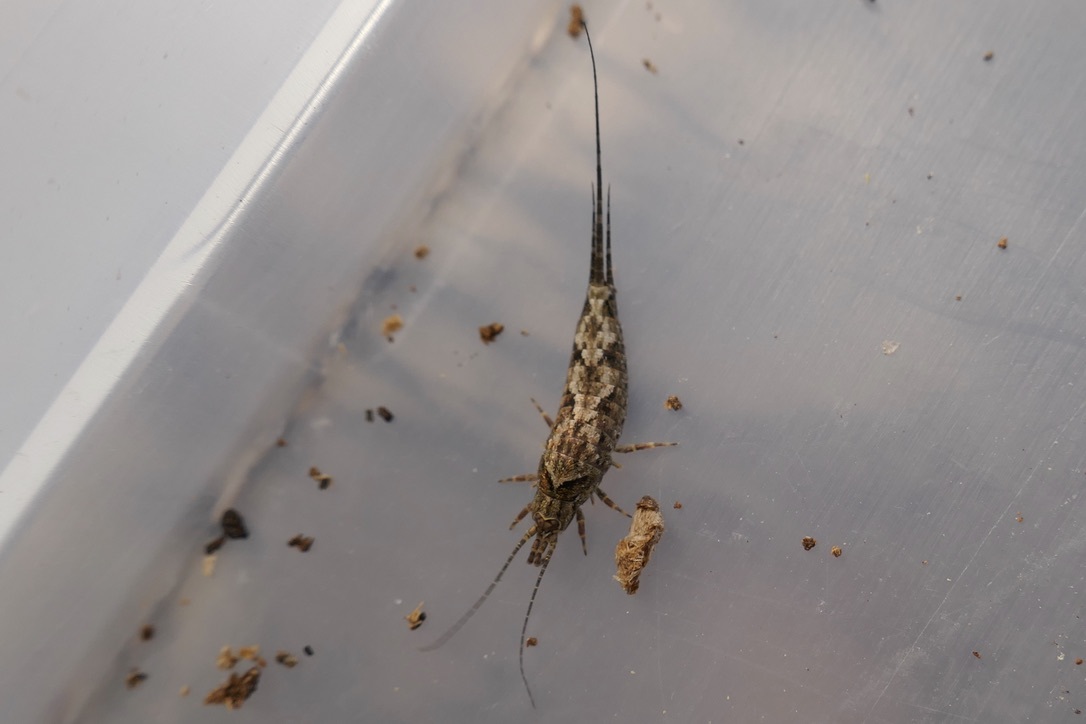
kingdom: Animalia
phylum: Arthropoda
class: Insecta
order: Archaeognatha
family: Machilidae
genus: Lepismachilis
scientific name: Lepismachilis y-signata
